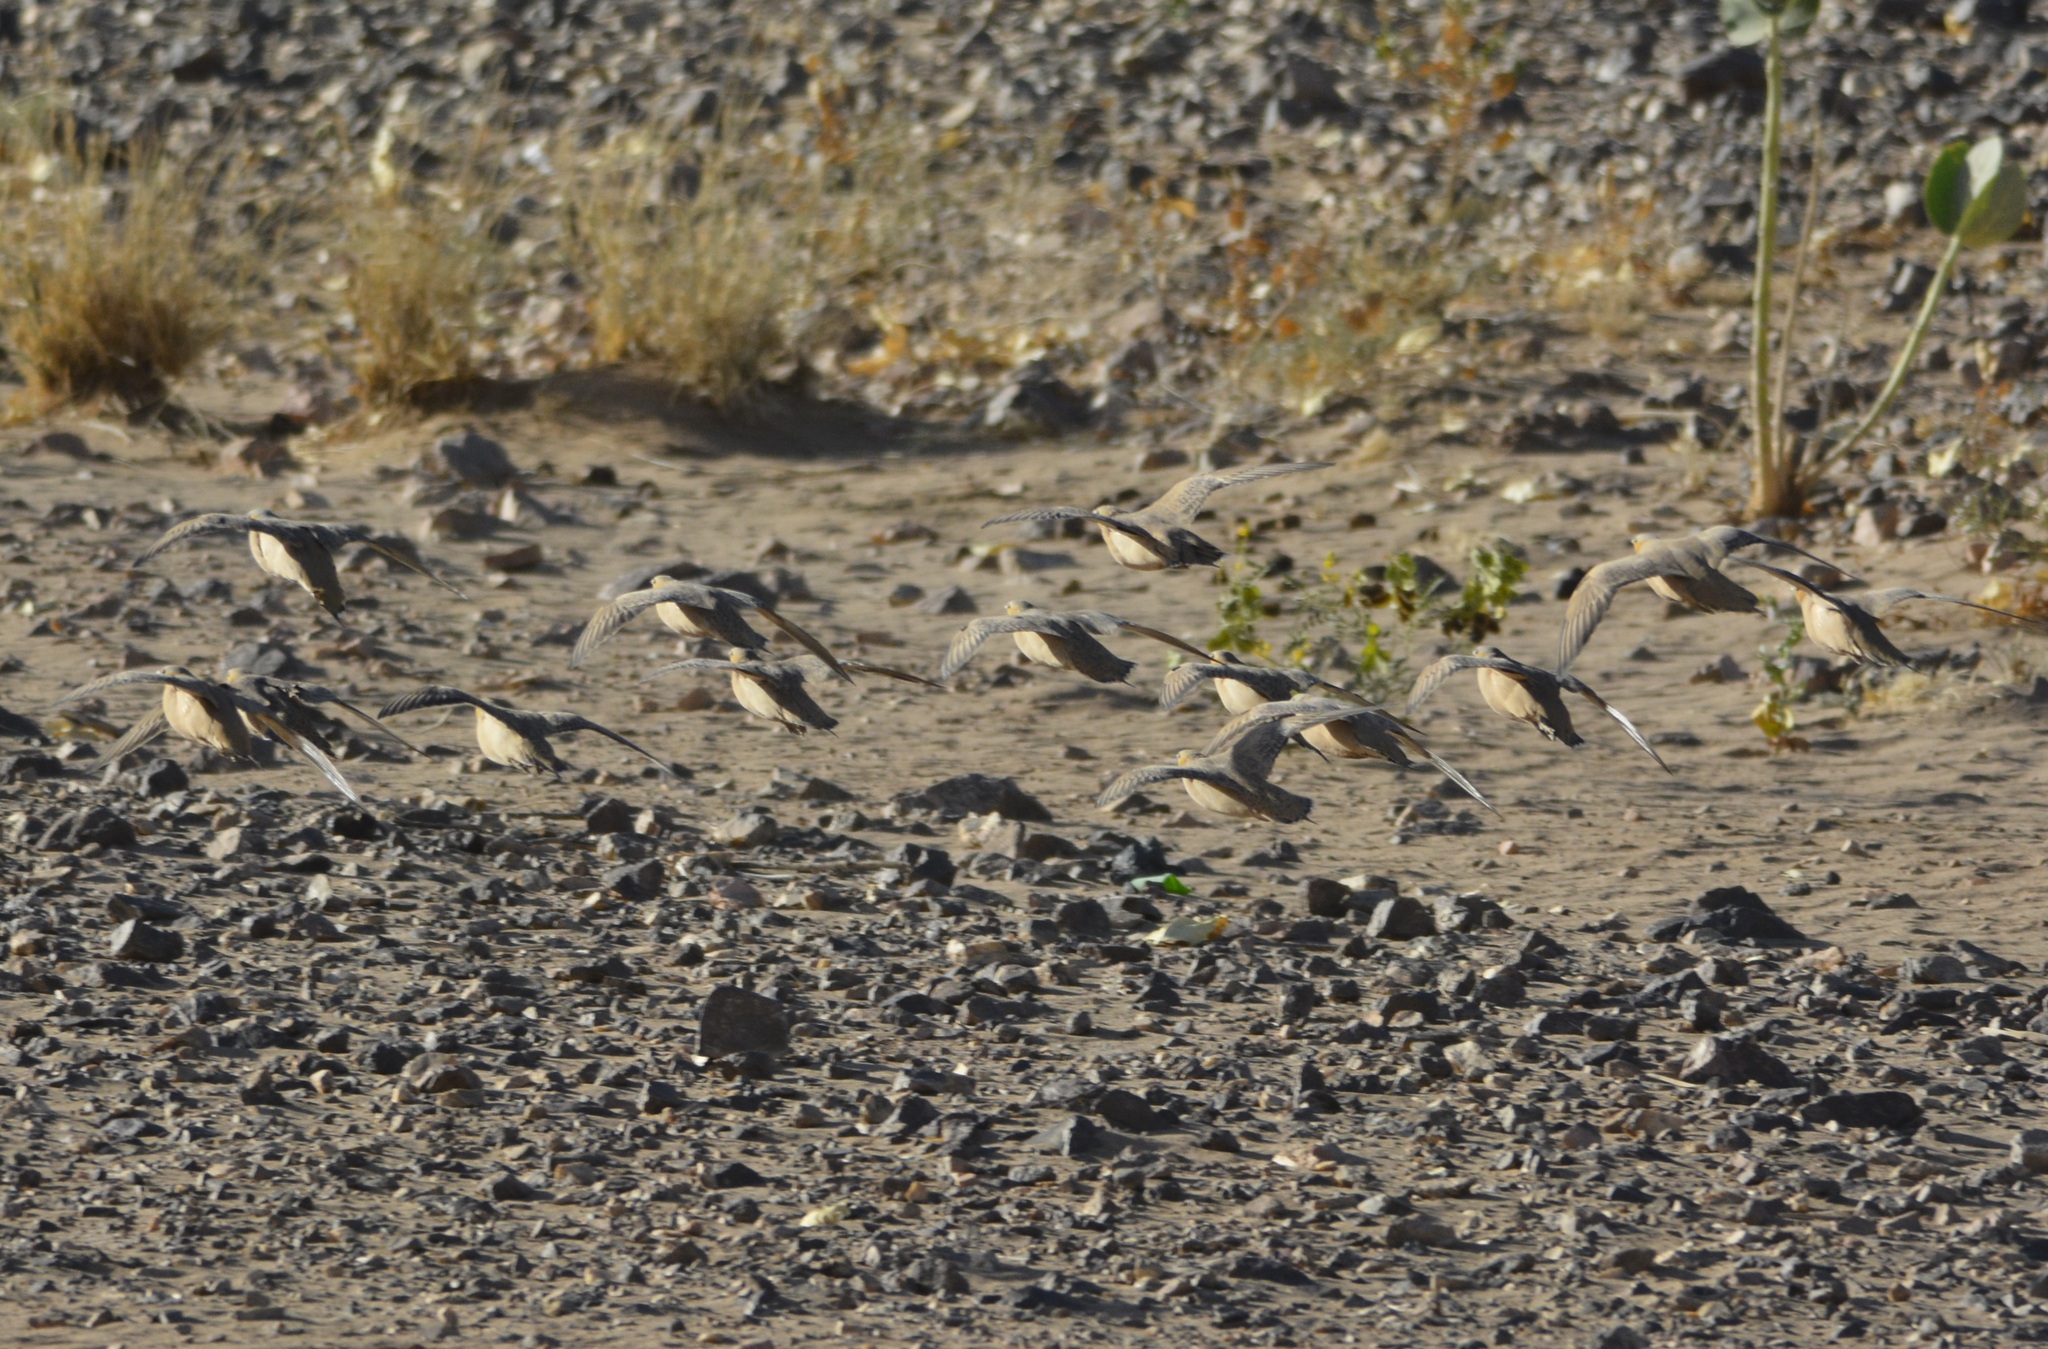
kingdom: Animalia
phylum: Chordata
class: Aves
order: Pteroclidiformes
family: Pteroclididae
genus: Pterocles
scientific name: Pterocles senegallus
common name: Spotted sandgrouse
